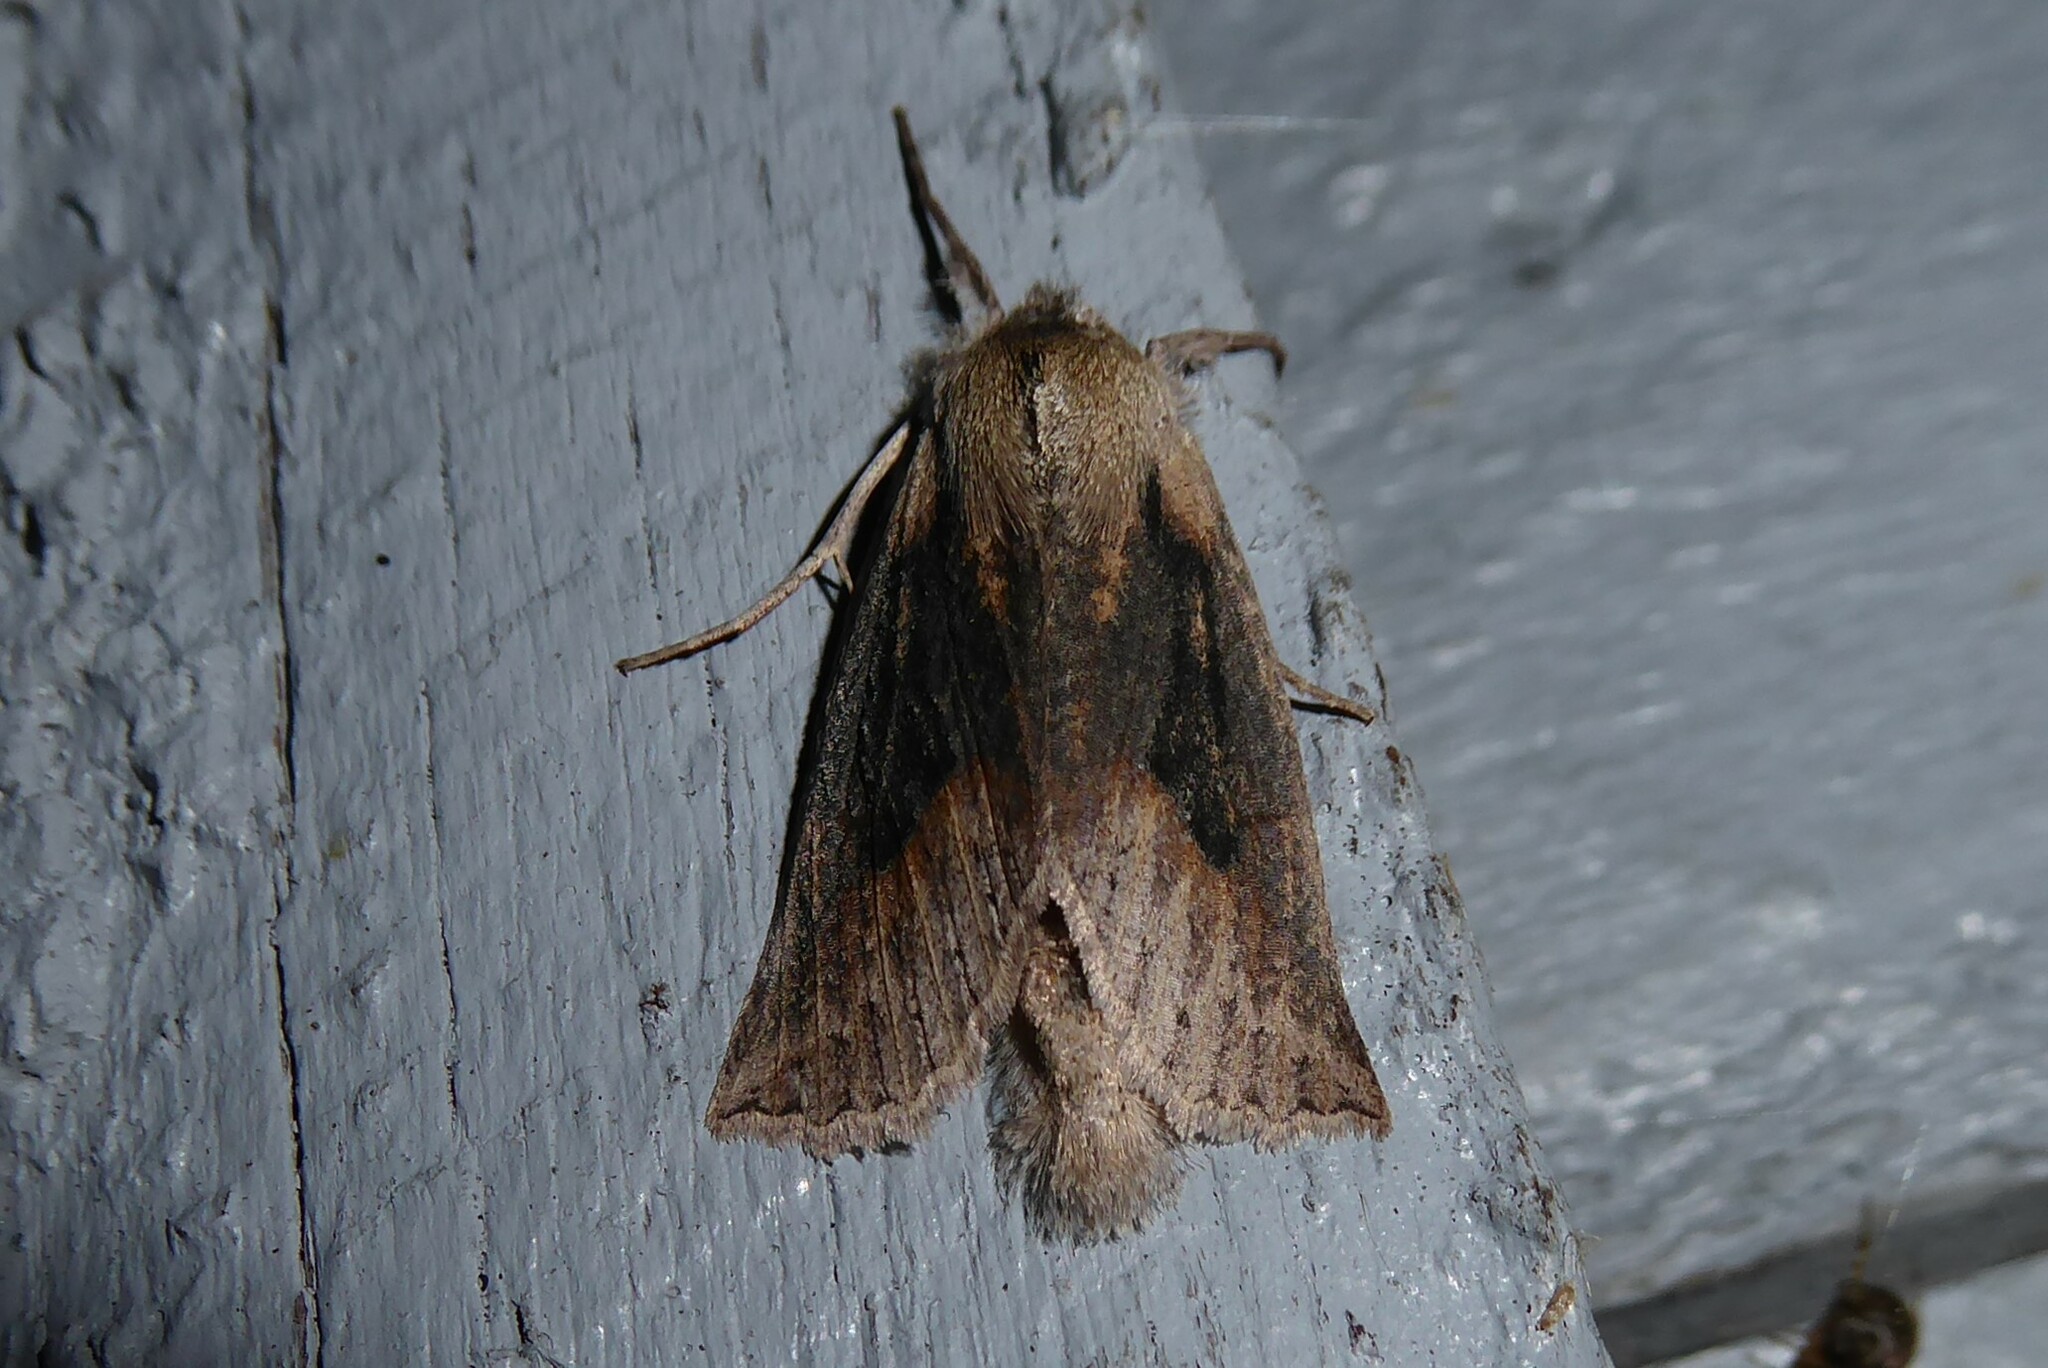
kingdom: Animalia
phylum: Arthropoda
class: Insecta
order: Lepidoptera
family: Geometridae
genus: Declana
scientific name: Declana leptomera
